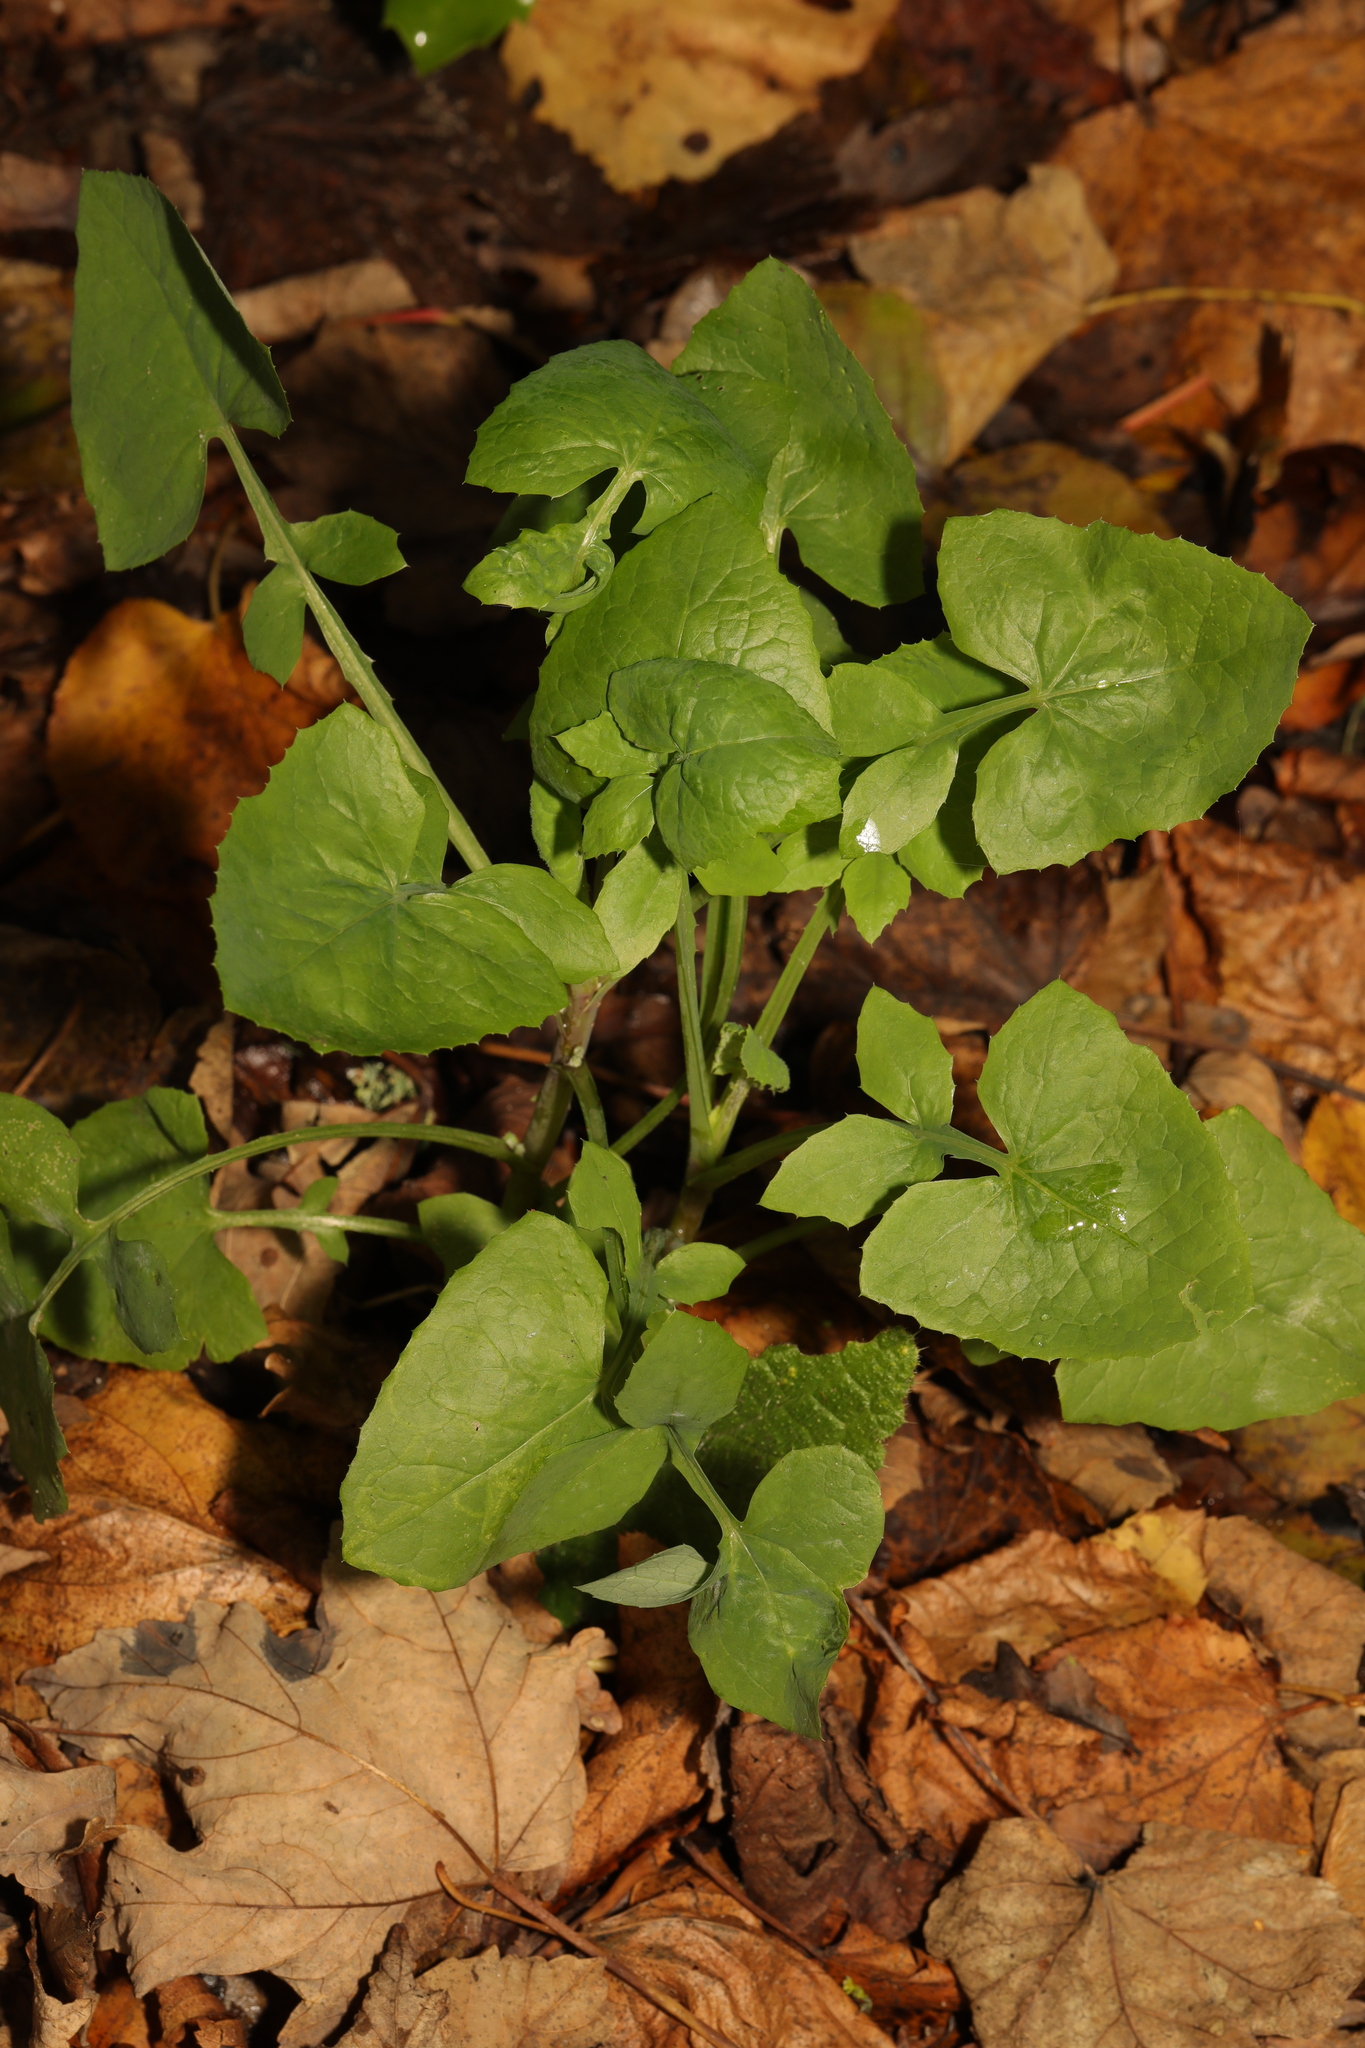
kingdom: Plantae
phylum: Tracheophyta
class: Magnoliopsida
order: Asterales
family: Asteraceae
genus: Sonchus
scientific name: Sonchus oleraceus
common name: Common sowthistle
